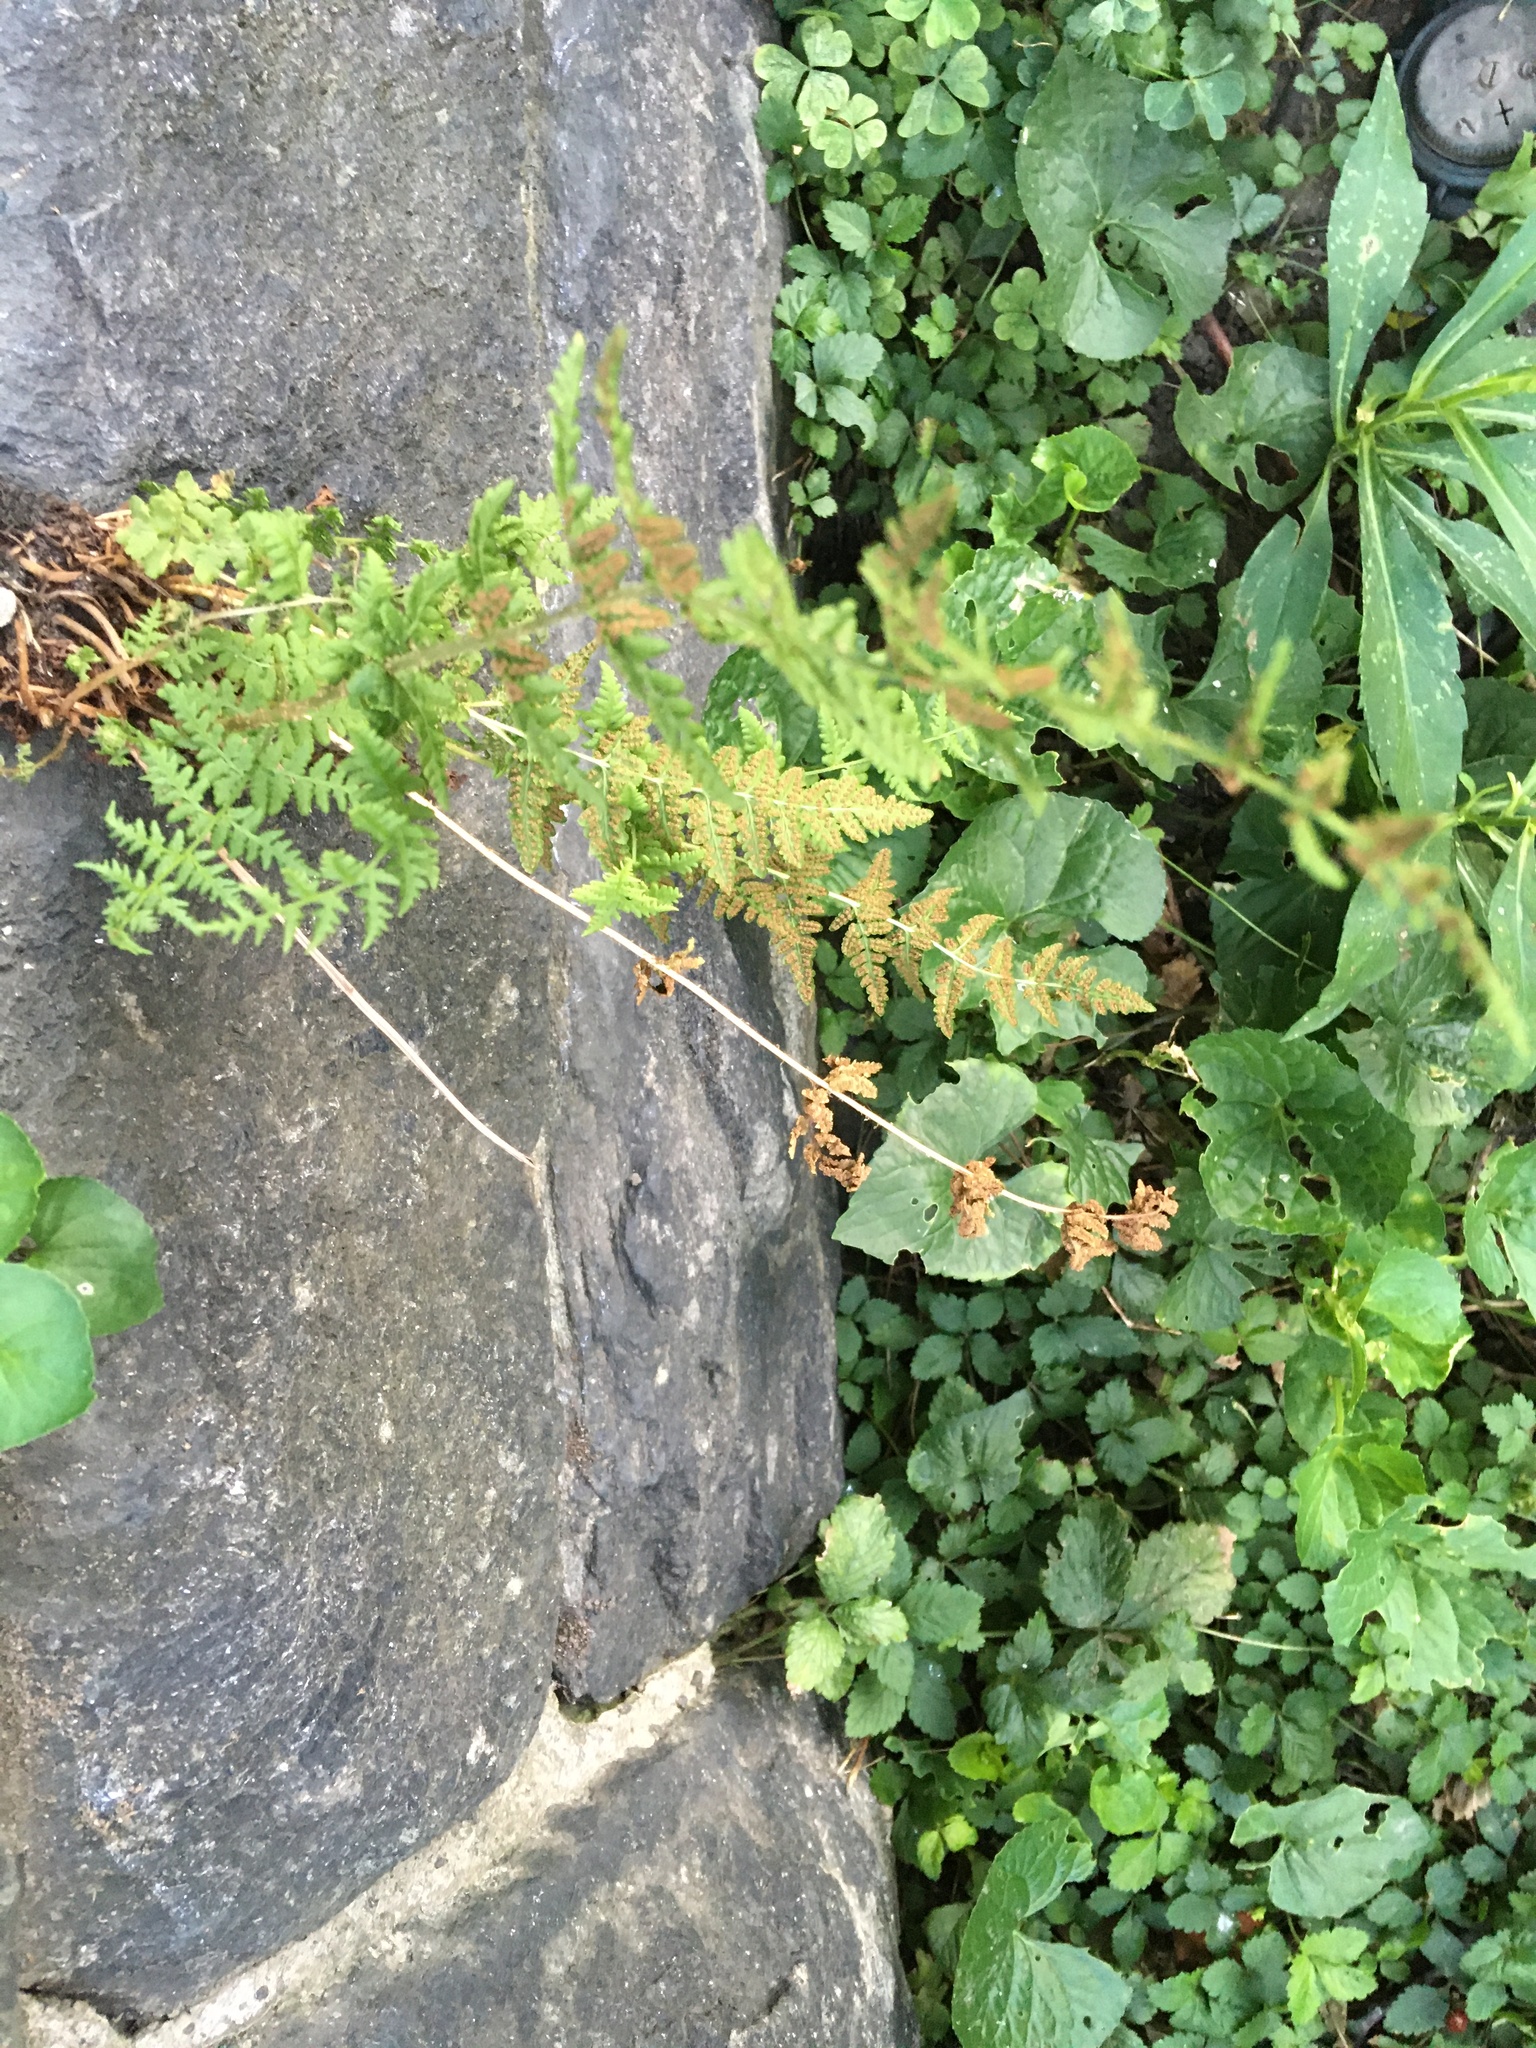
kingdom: Plantae
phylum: Tracheophyta
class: Polypodiopsida
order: Polypodiales
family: Woodsiaceae
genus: Physematium
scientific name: Physematium obtusum
